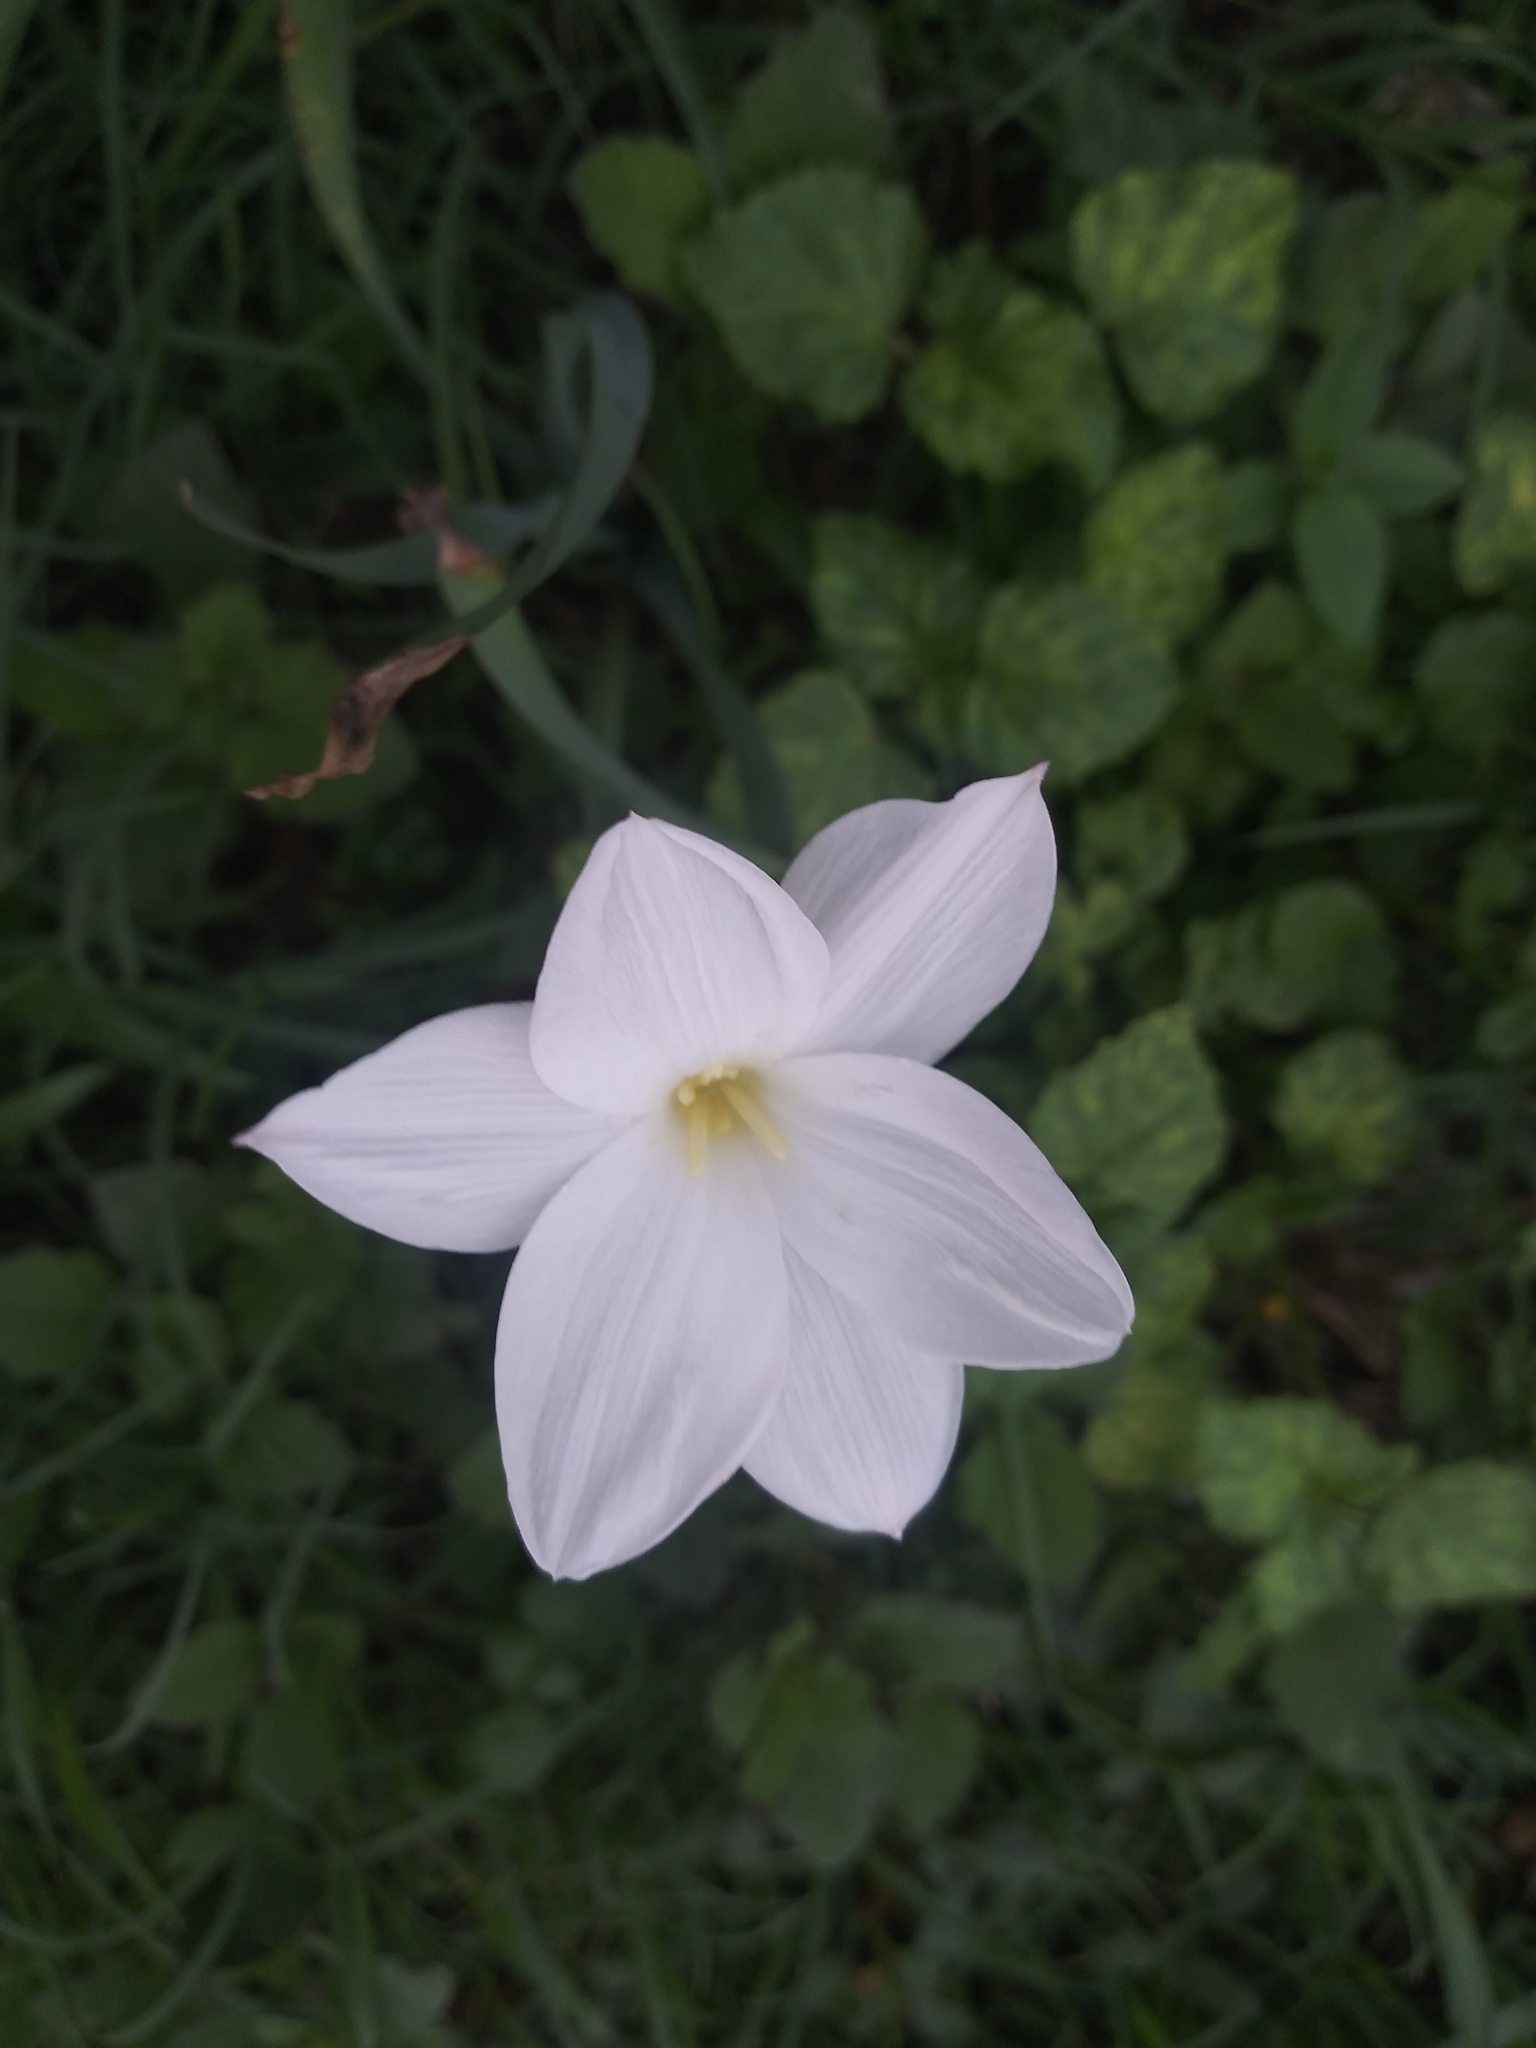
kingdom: Plantae
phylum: Tracheophyta
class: Liliopsida
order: Asparagales
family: Amaryllidaceae
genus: Zephyranthes
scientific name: Zephyranthes drummondii
